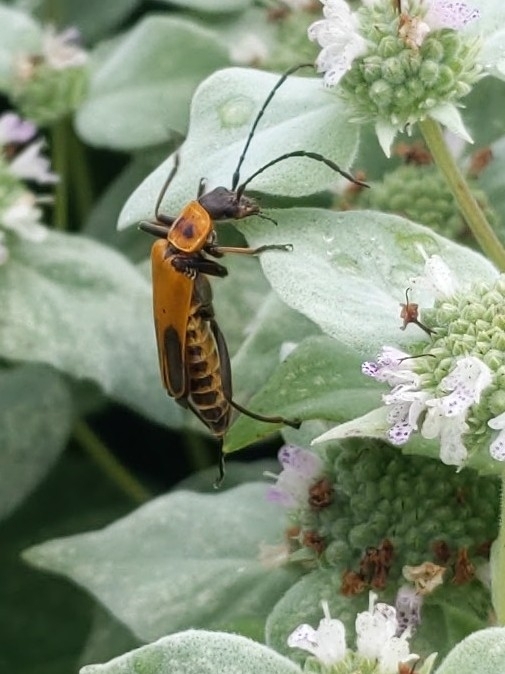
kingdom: Animalia
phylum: Arthropoda
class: Insecta
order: Coleoptera
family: Cantharidae
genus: Chauliognathus
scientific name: Chauliognathus pensylvanicus
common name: Goldenrod soldier beetle
